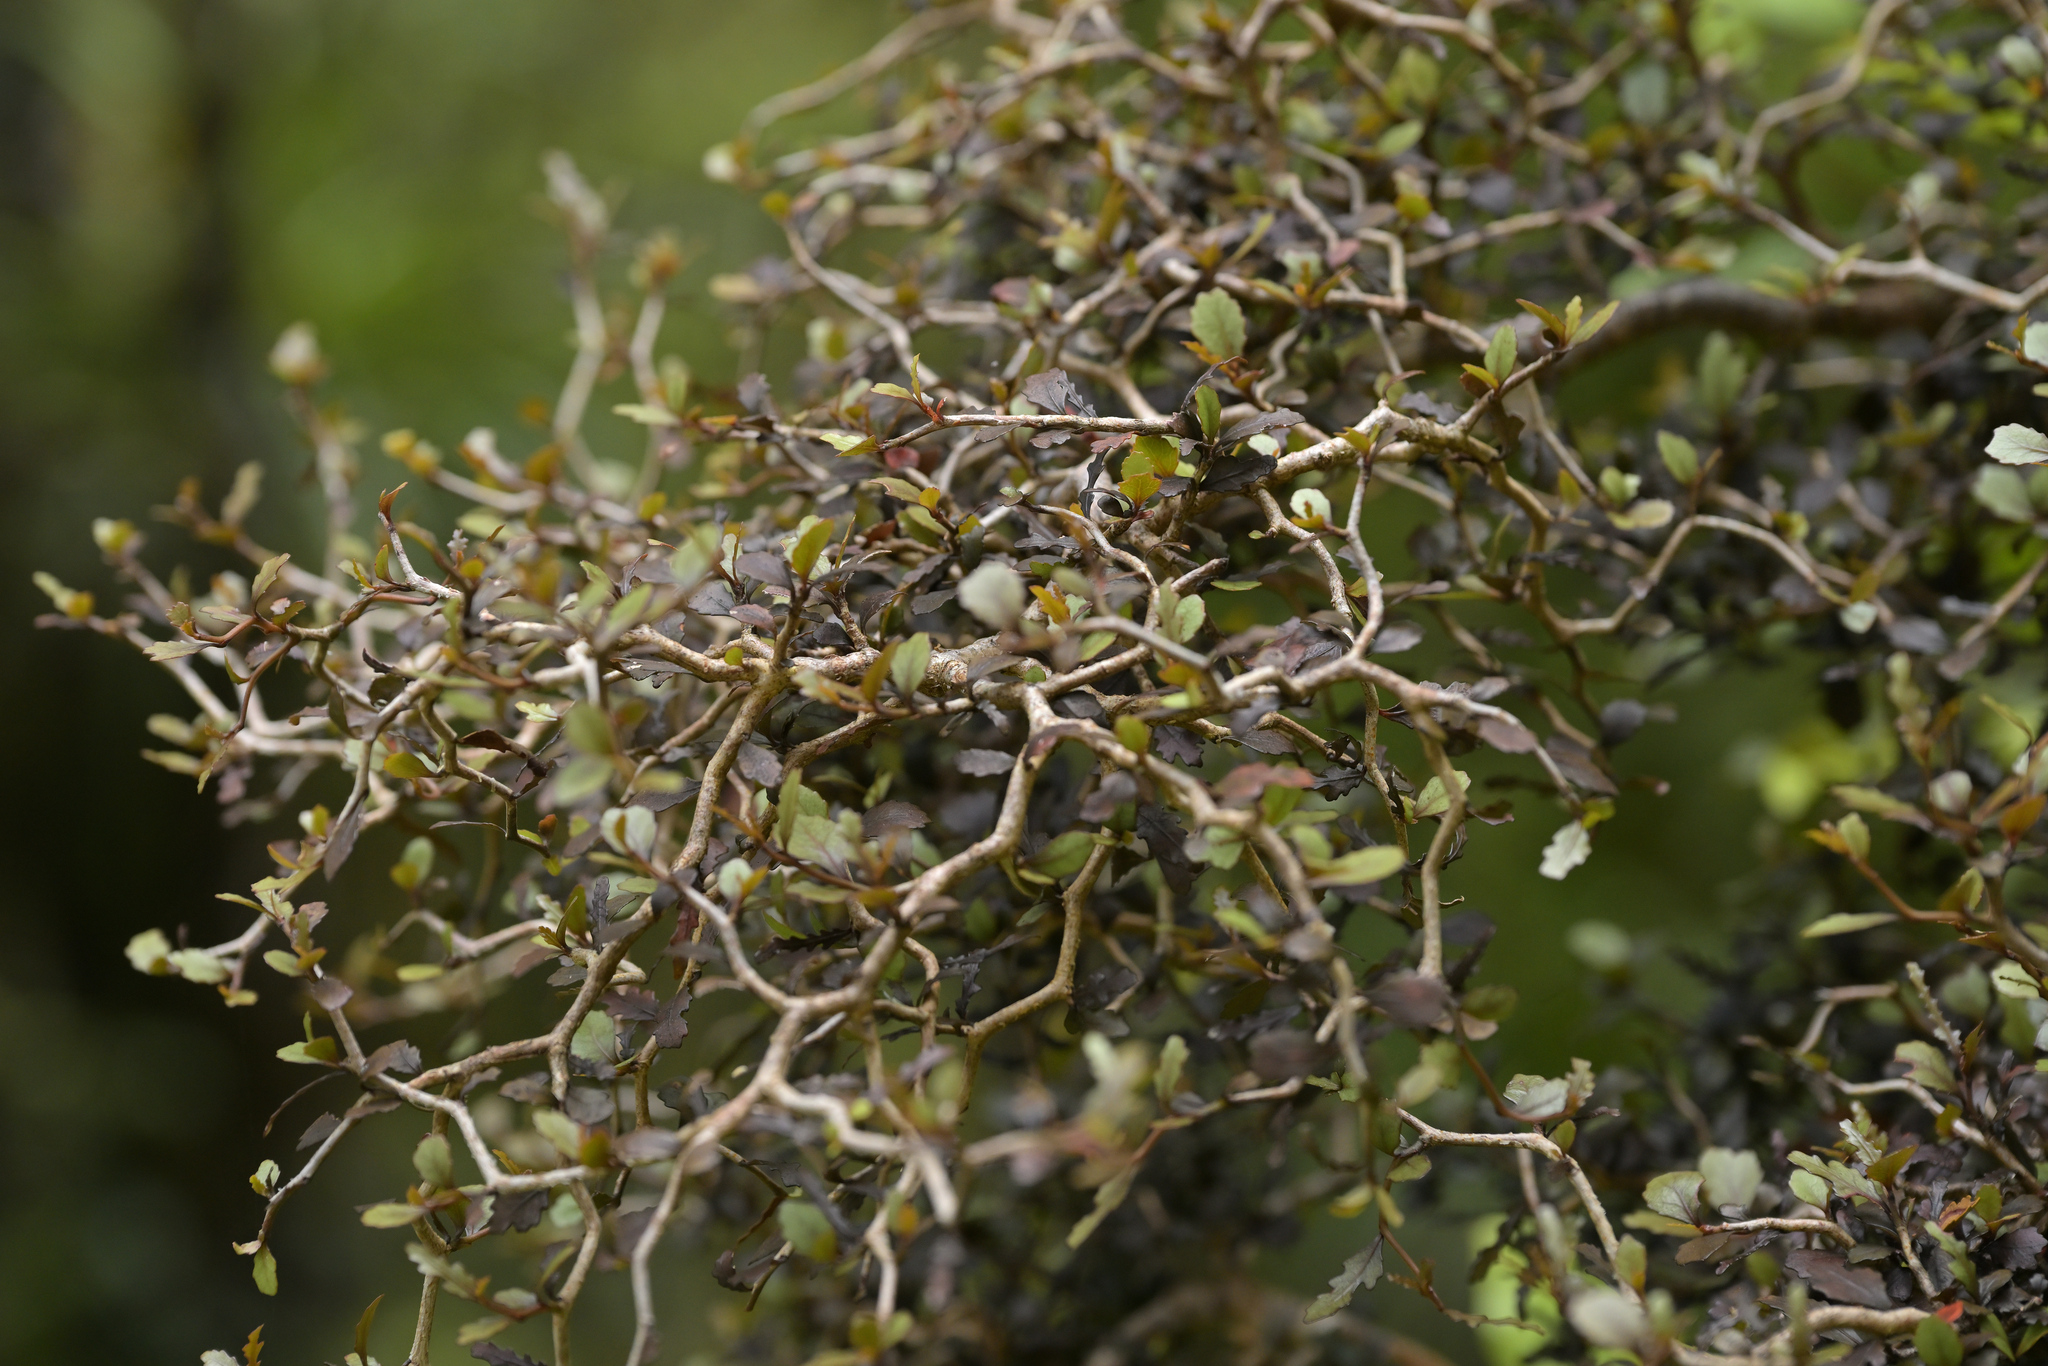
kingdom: Plantae
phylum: Tracheophyta
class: Magnoliopsida
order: Oxalidales
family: Elaeocarpaceae
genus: Elaeocarpus
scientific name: Elaeocarpus hookerianus
